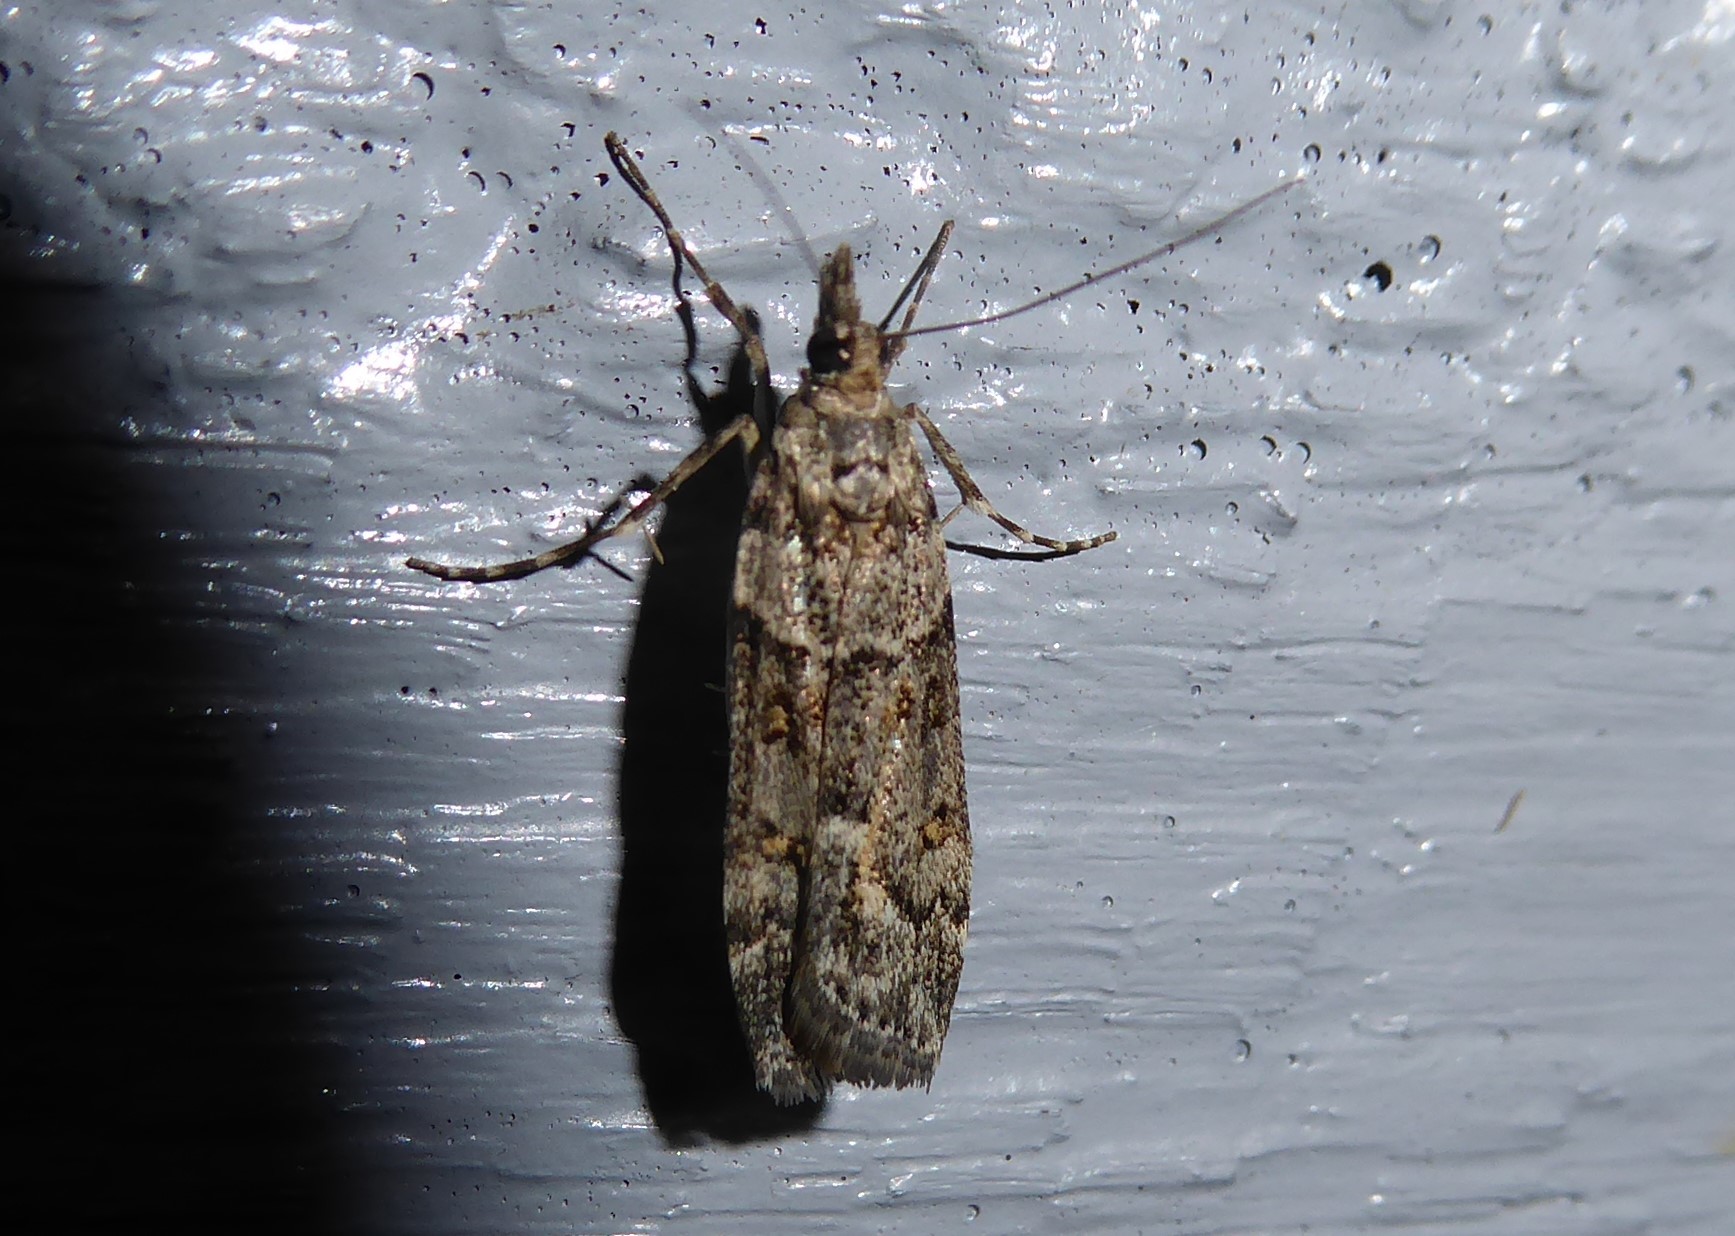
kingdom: Animalia
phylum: Arthropoda
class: Insecta
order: Lepidoptera
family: Crambidae
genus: Eudonia
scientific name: Eudonia diphtheralis
